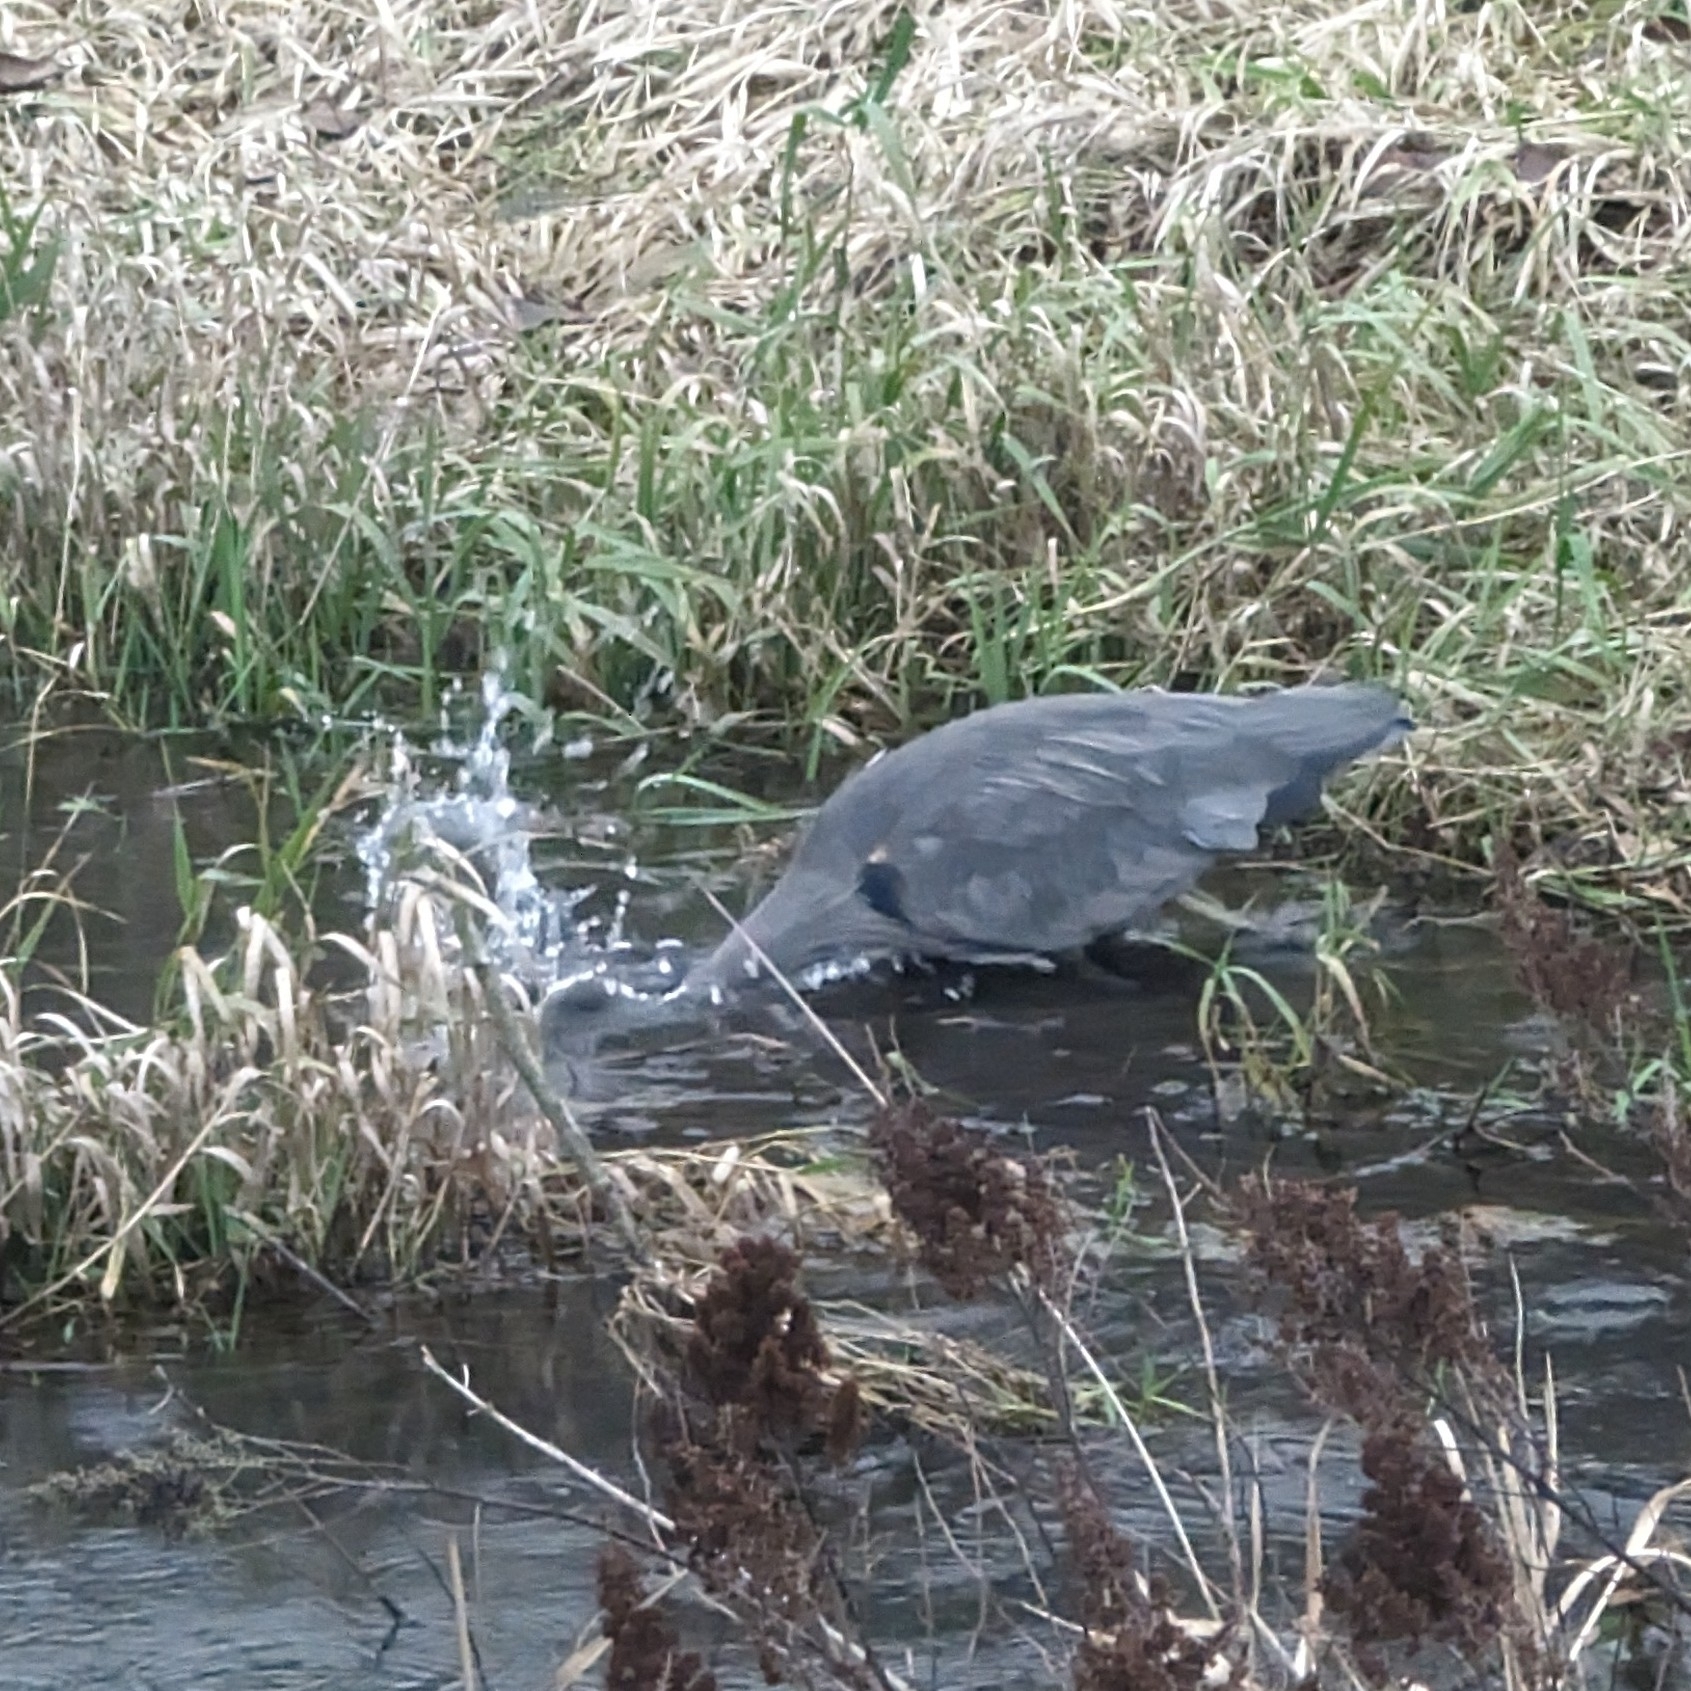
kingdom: Animalia
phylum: Chordata
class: Aves
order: Pelecaniformes
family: Ardeidae
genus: Ardea
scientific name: Ardea herodias
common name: Great blue heron
